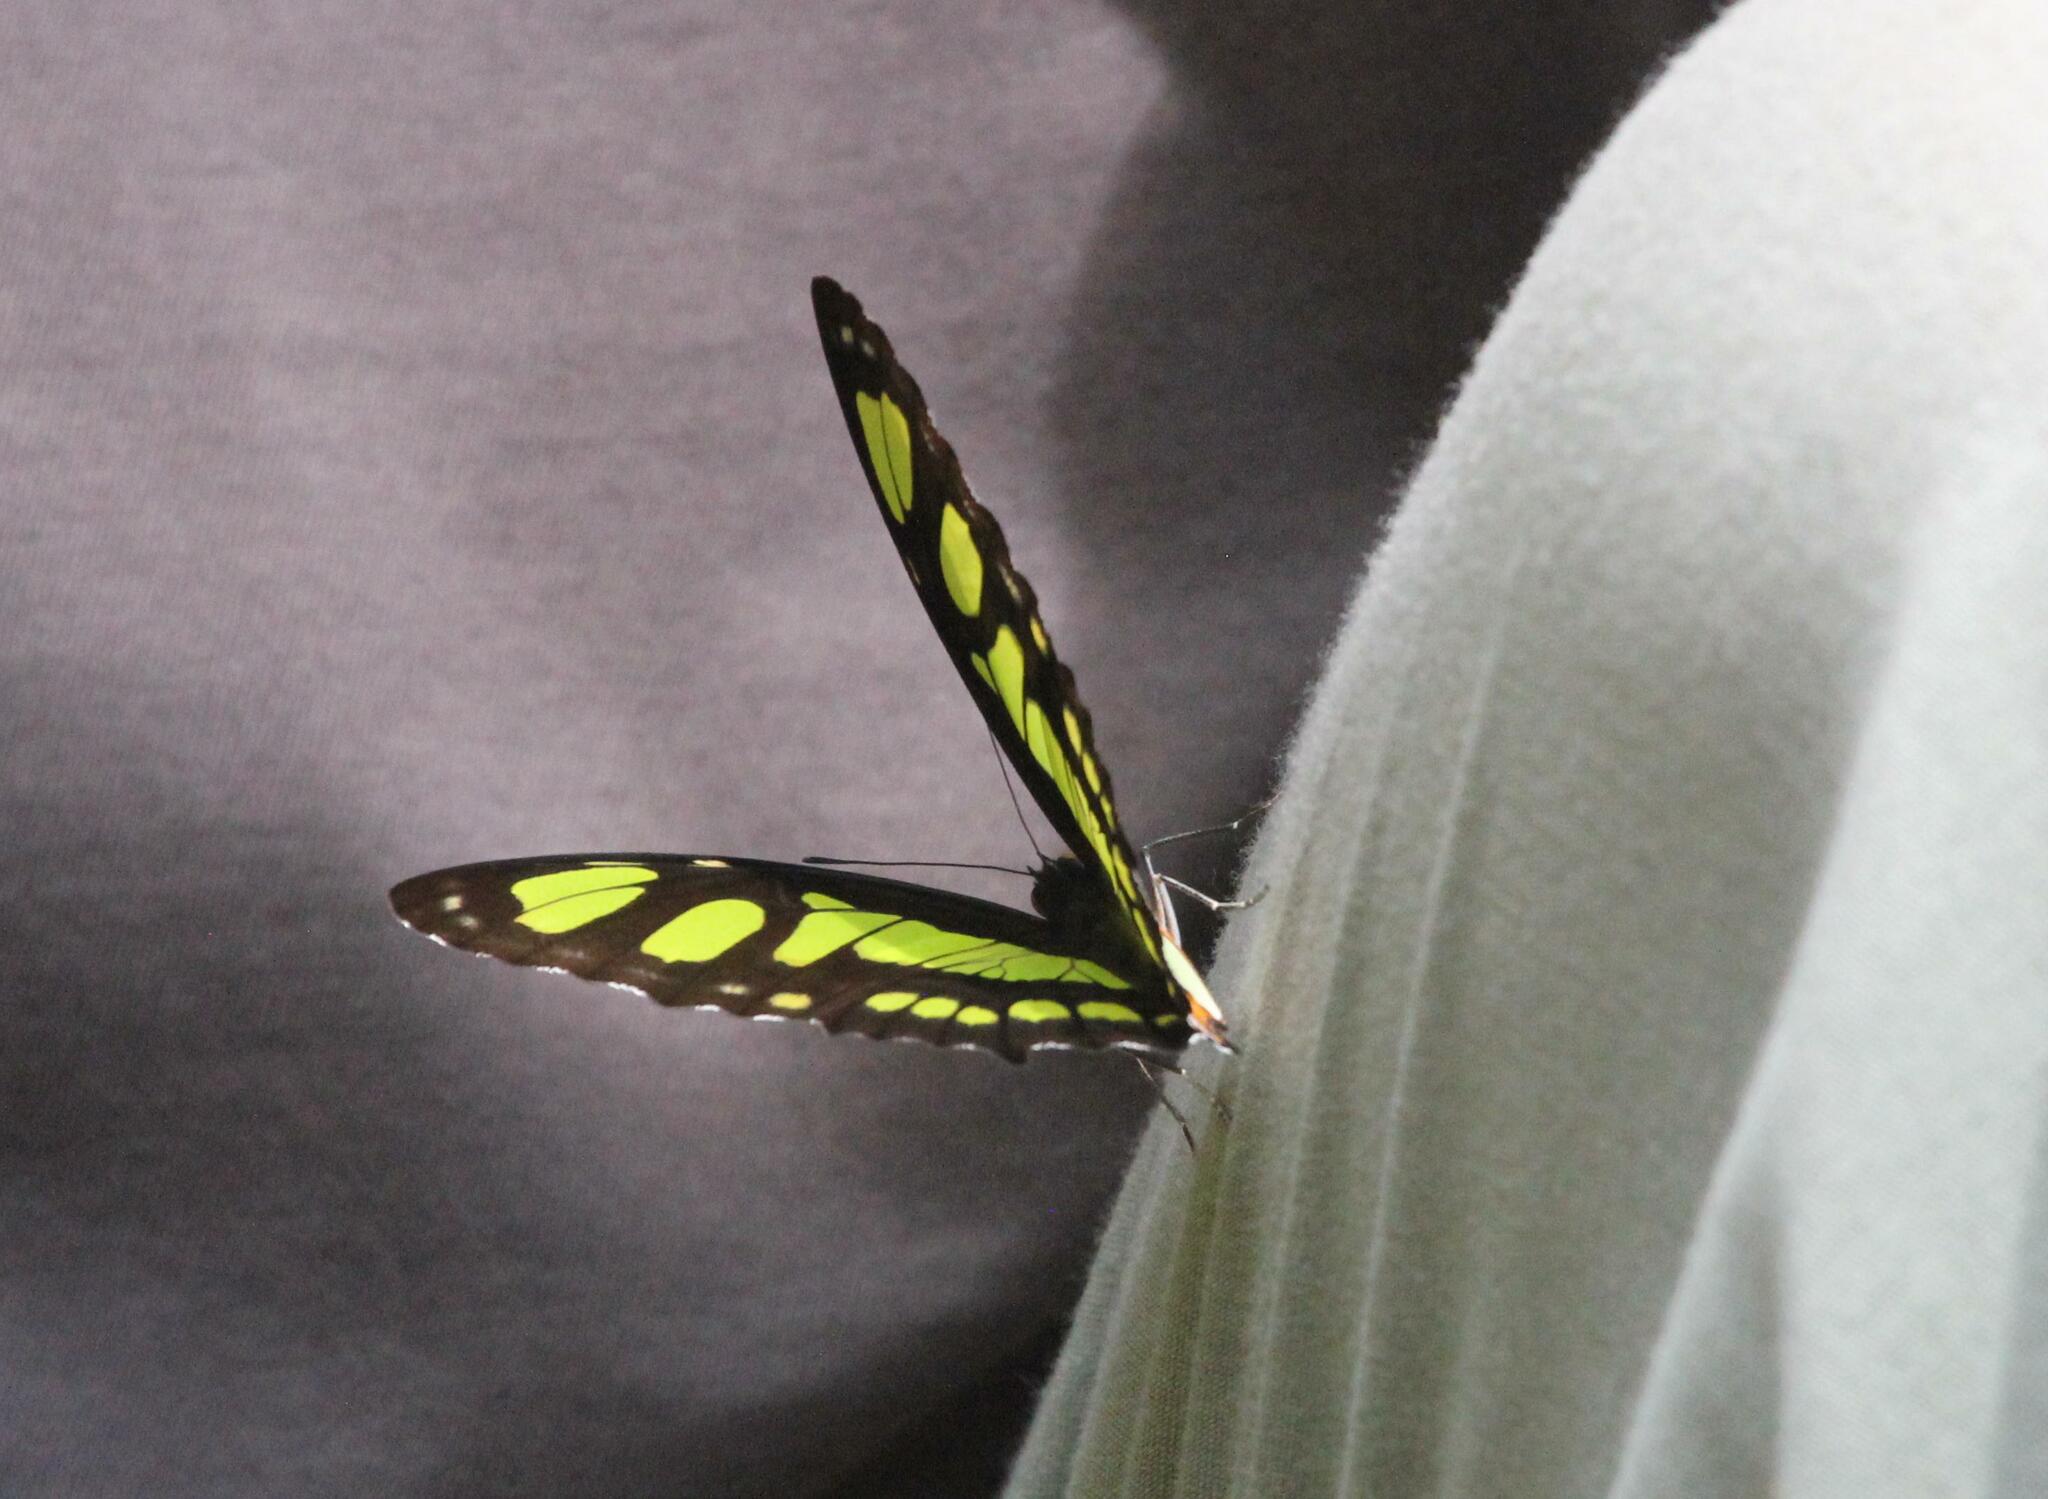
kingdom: Animalia
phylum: Arthropoda
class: Insecta
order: Lepidoptera
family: Nymphalidae
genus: Siproeta
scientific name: Siproeta stelenes
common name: Malachite
